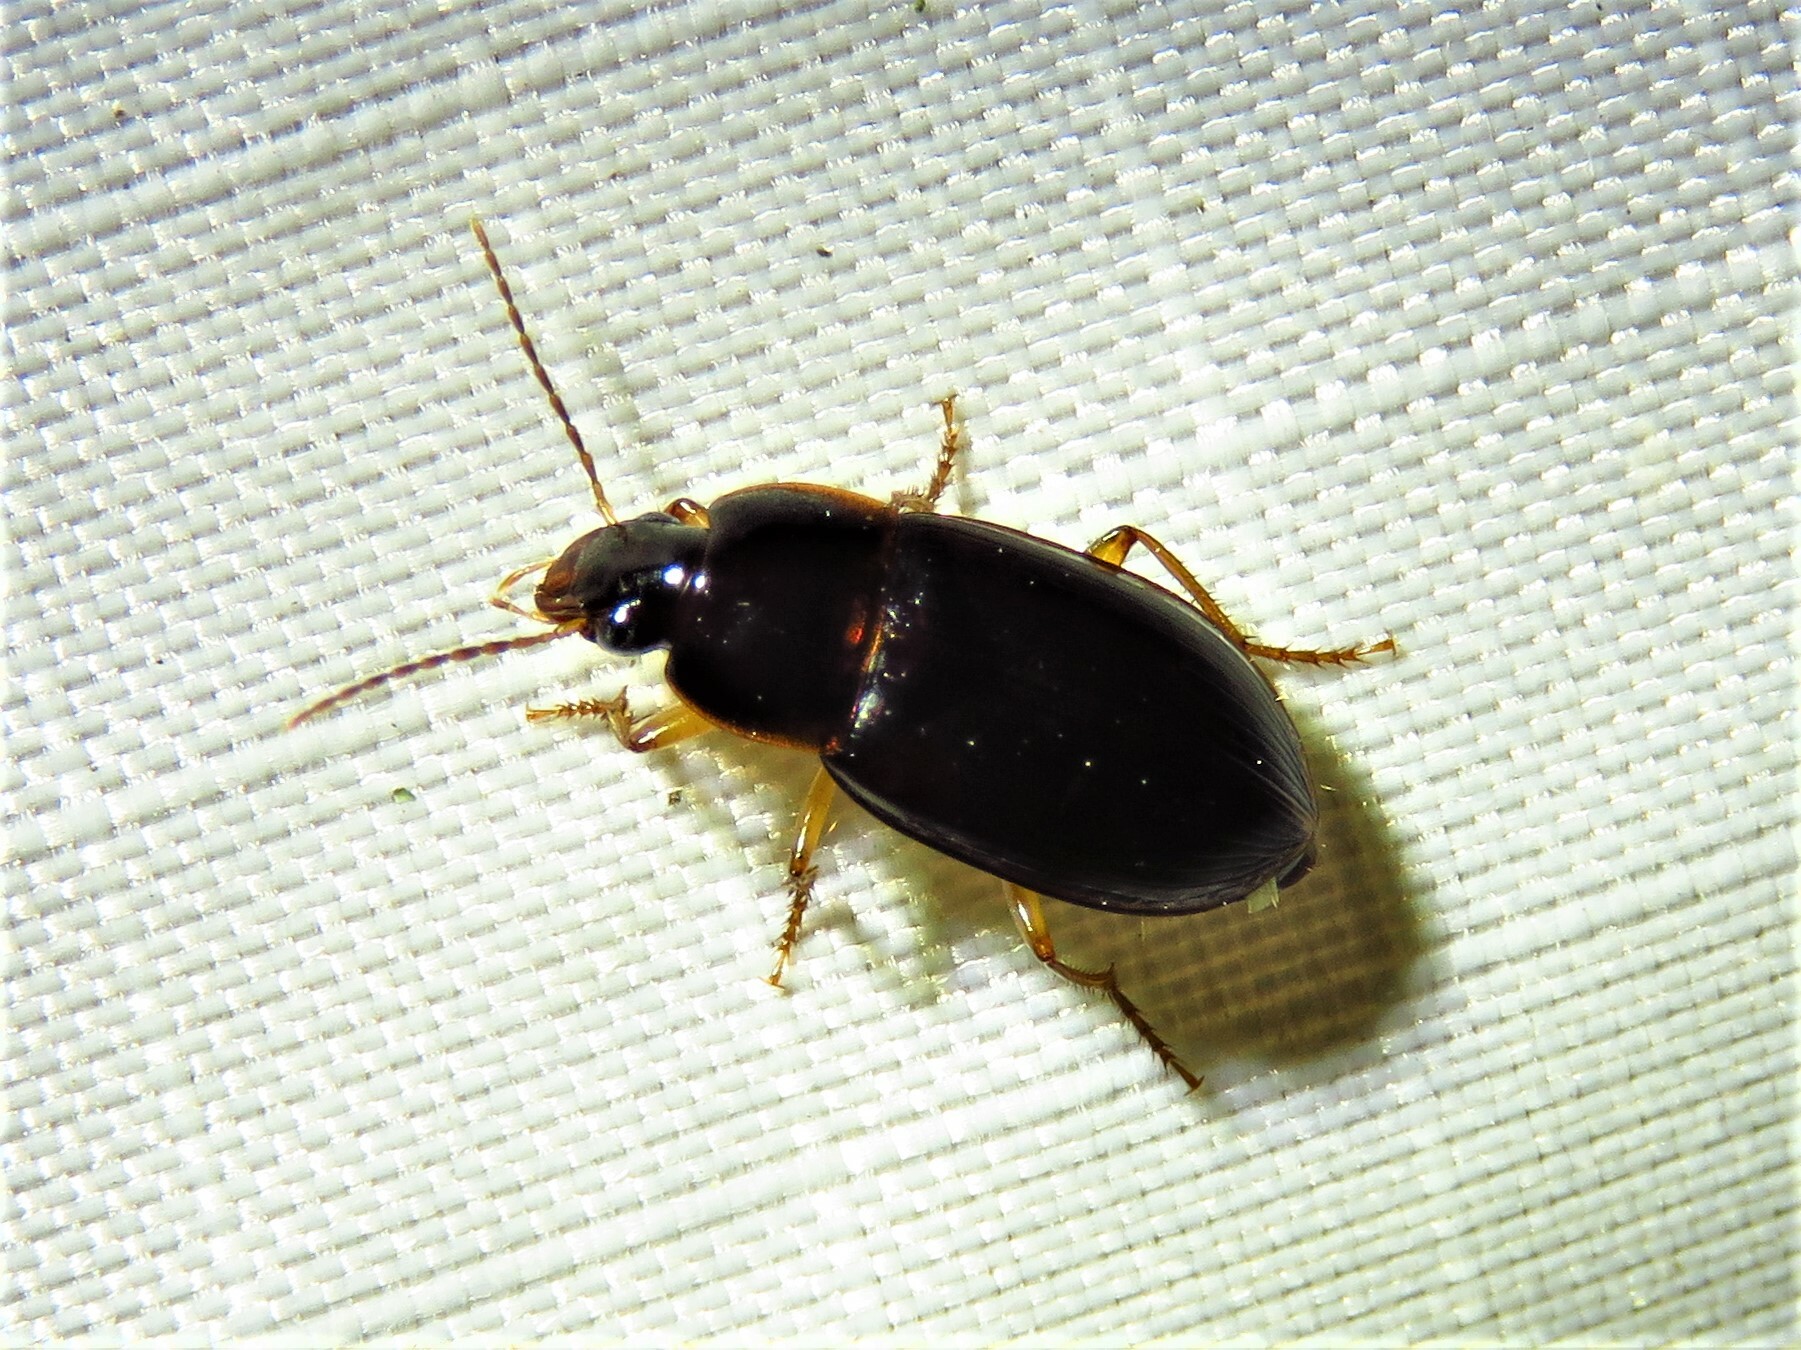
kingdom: Animalia
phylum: Arthropoda
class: Insecta
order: Coleoptera
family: Carabidae
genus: Notiobia
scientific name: Notiobia terminata
